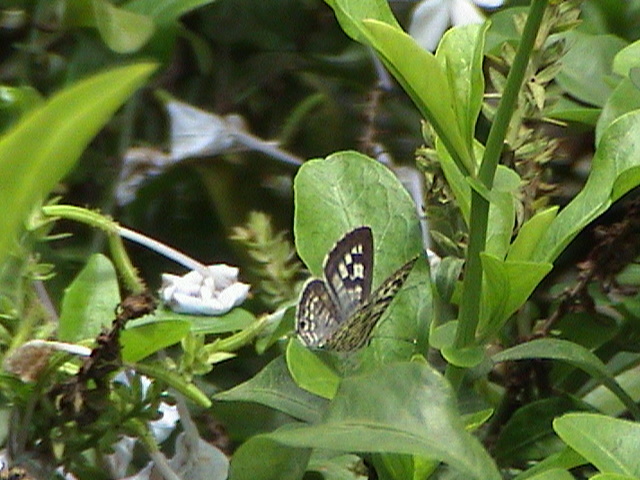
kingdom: Animalia
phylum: Arthropoda
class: Insecta
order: Lepidoptera
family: Lycaenidae
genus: Leptotes
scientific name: Leptotes plinius
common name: Zebra blue
